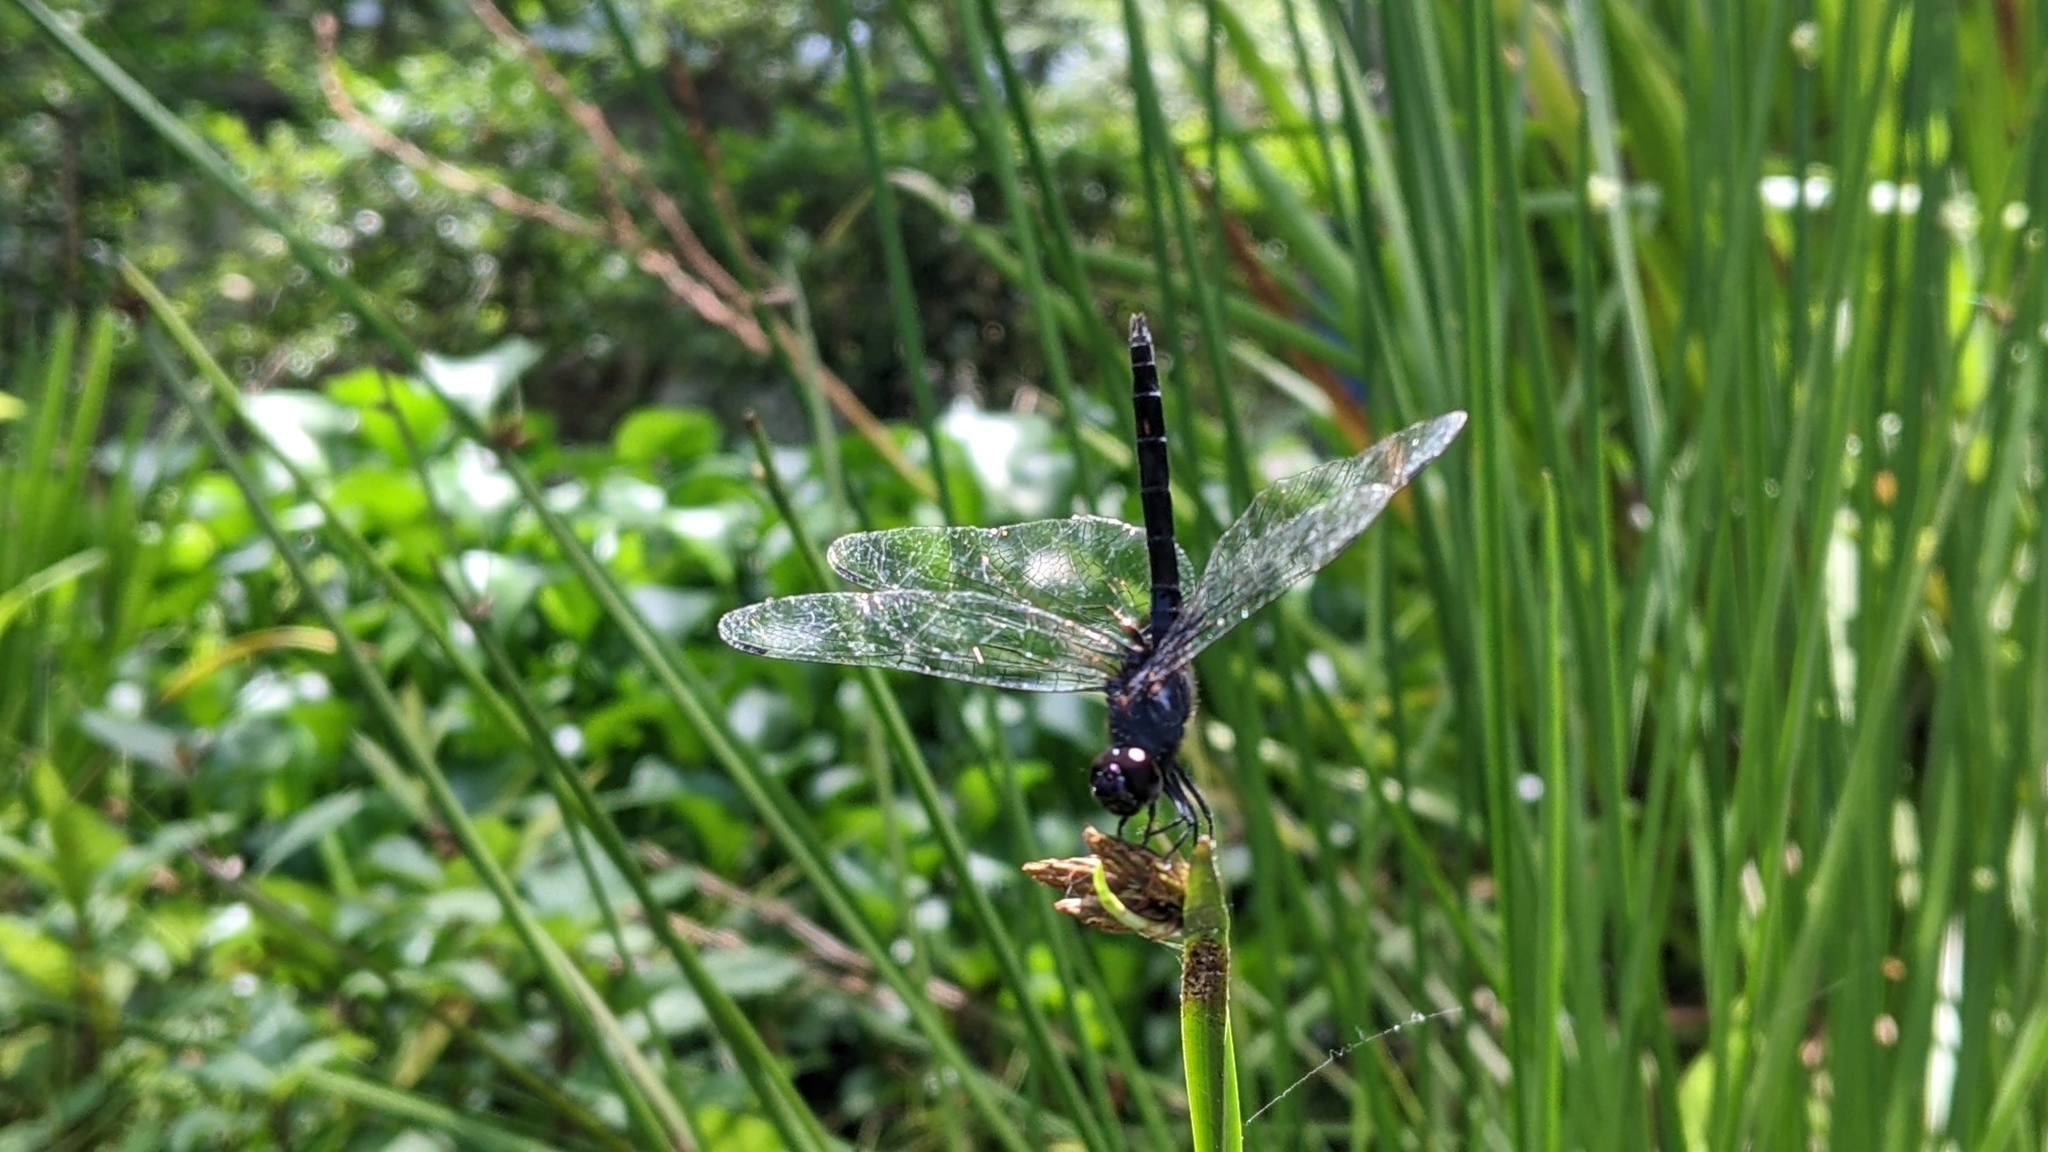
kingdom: Animalia
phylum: Arthropoda
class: Insecta
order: Odonata
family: Libellulidae
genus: Trithemis
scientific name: Trithemis festiva
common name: Indigo dropwing
